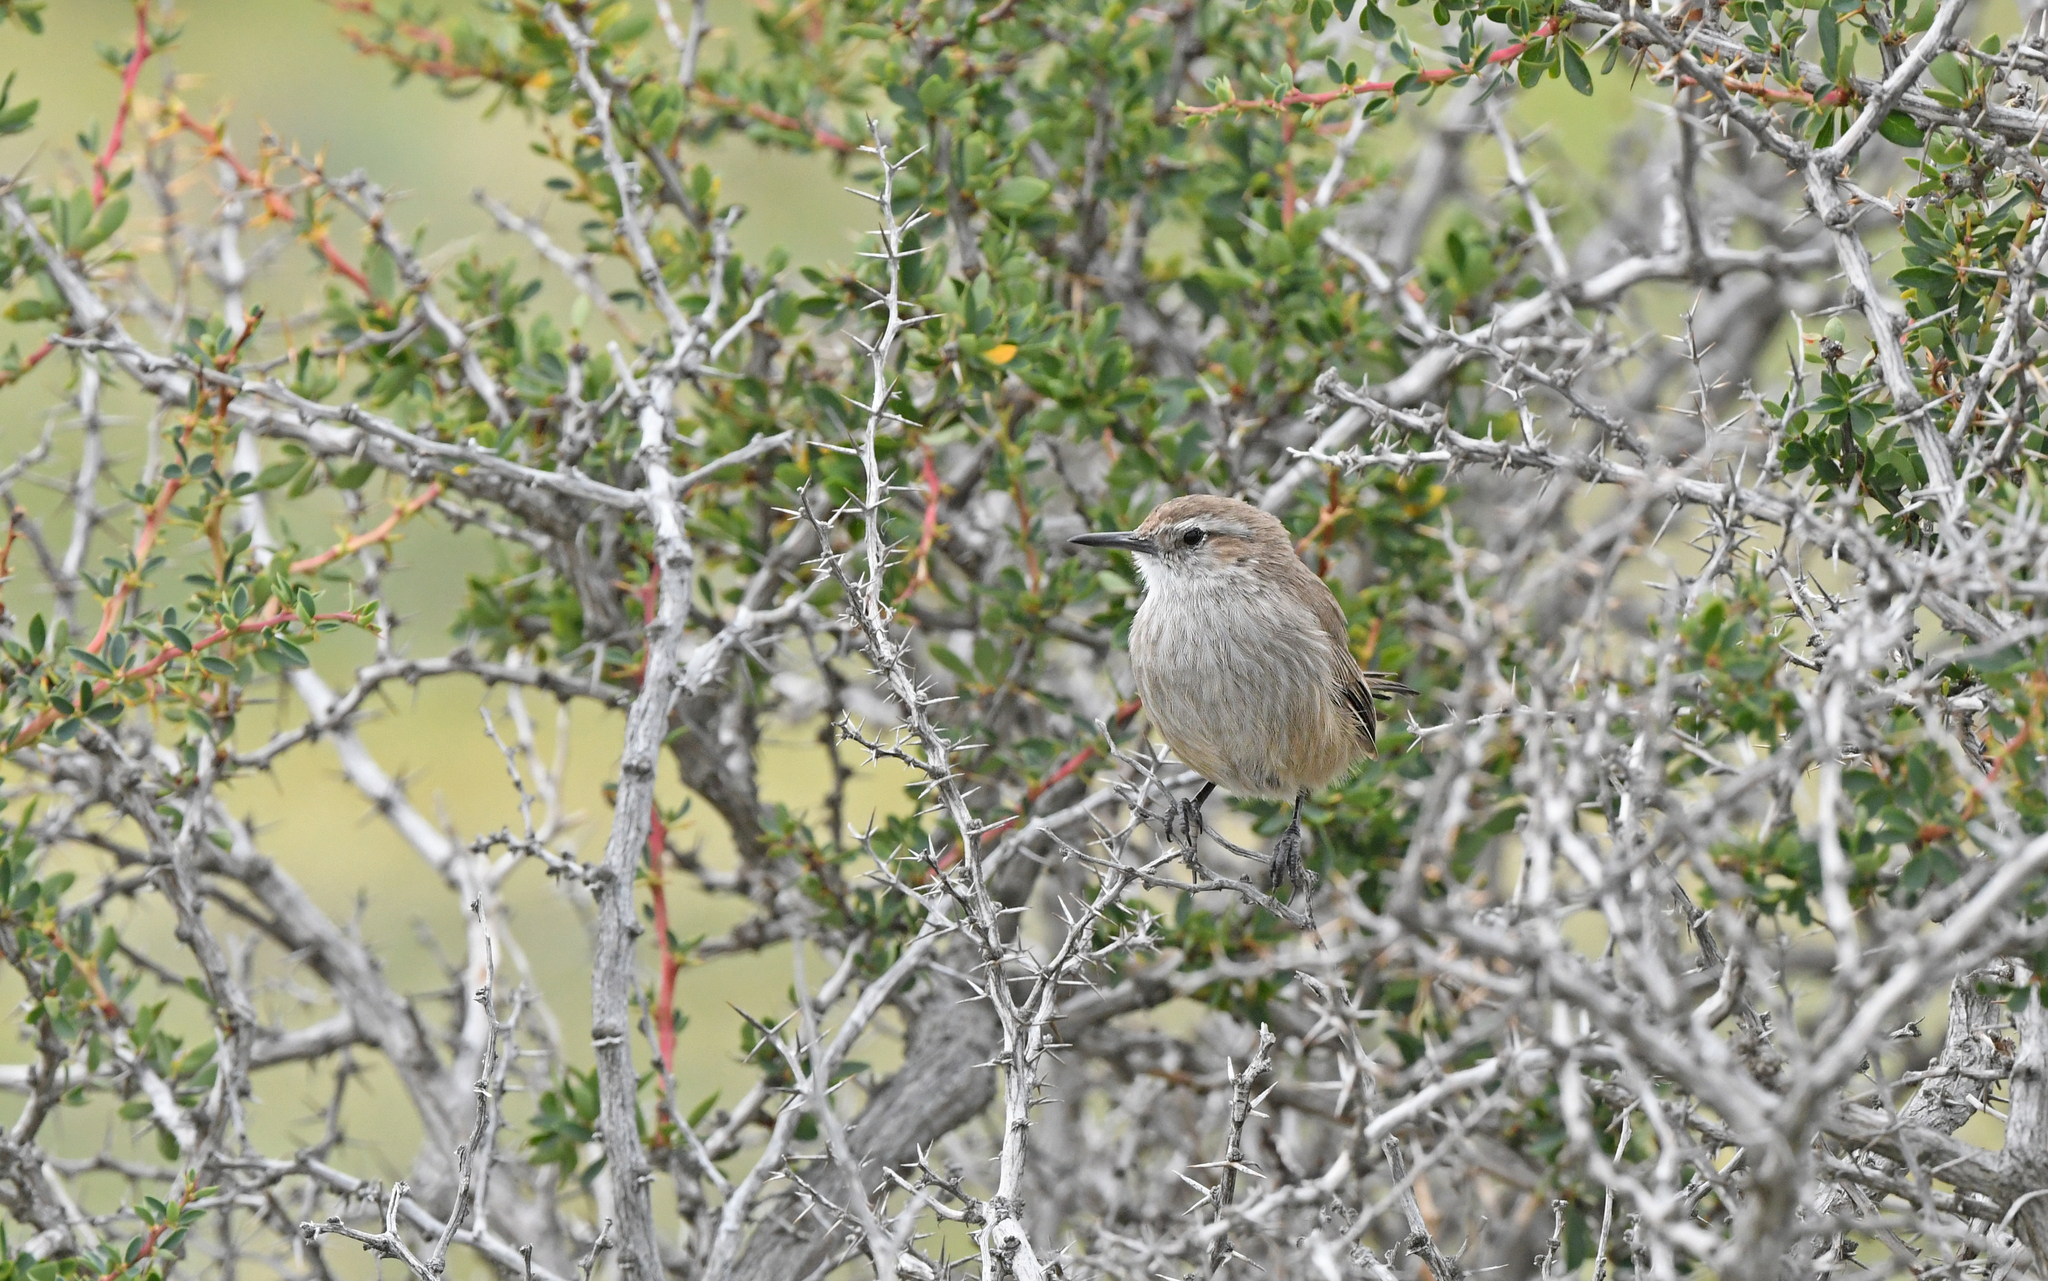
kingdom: Animalia
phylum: Chordata
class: Aves
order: Passeriformes
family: Furnariidae
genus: Eremobius
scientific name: Eremobius phoenicurus
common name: Band-tailed eremobius
